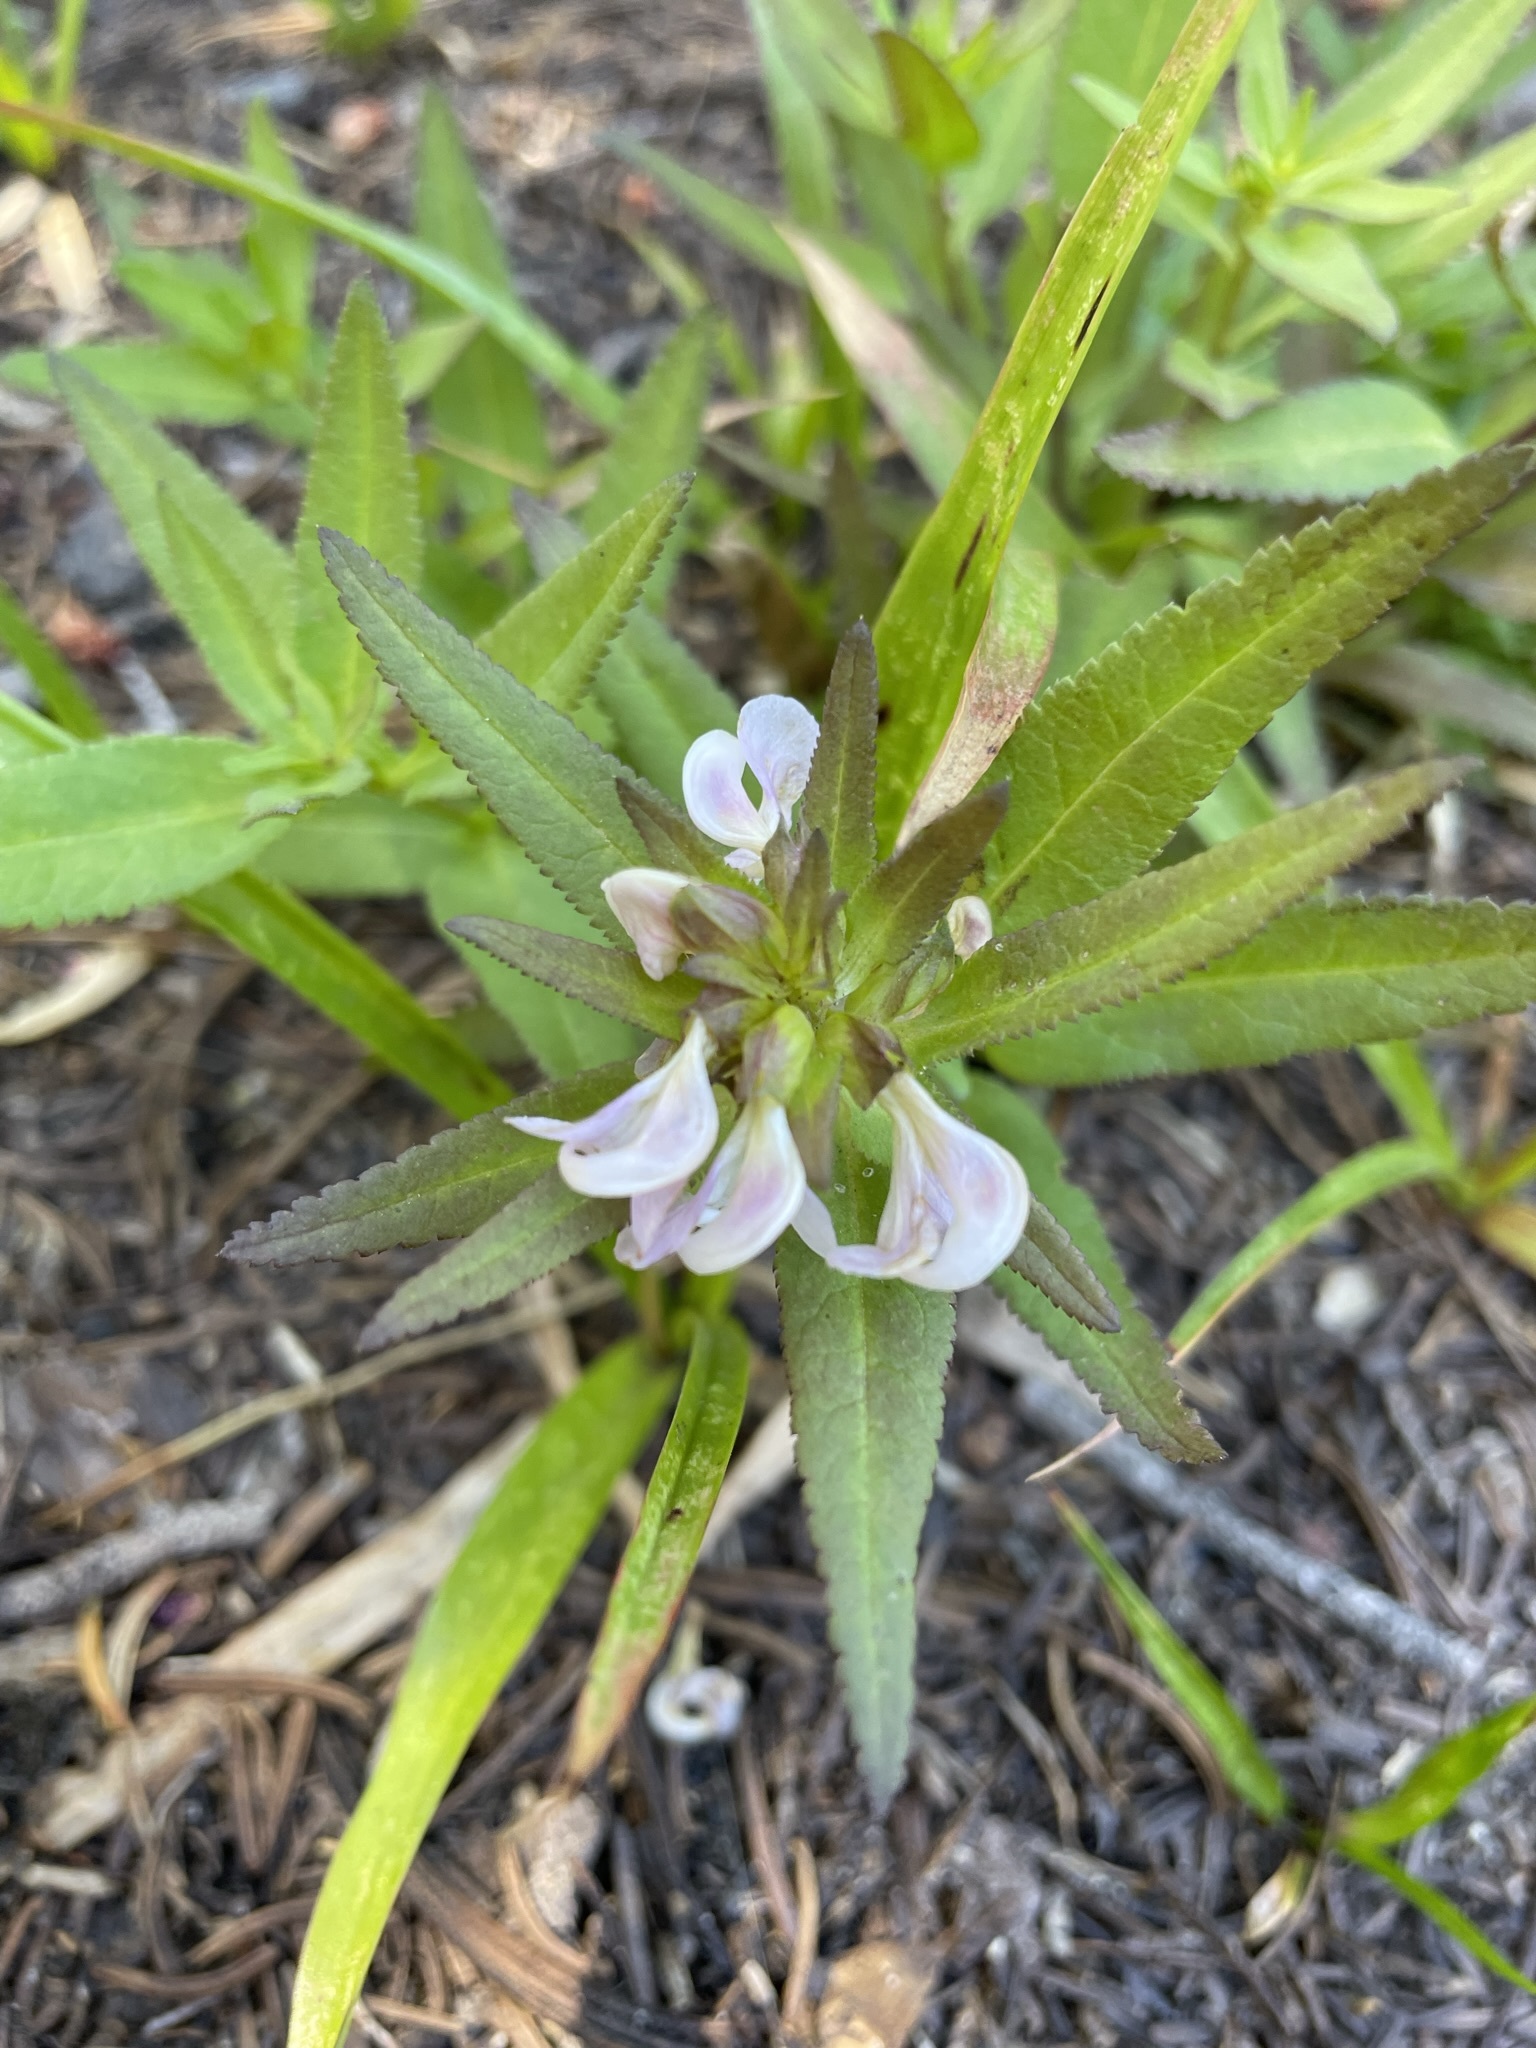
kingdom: Plantae
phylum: Tracheophyta
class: Magnoliopsida
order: Lamiales
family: Orobanchaceae
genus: Pedicularis
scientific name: Pedicularis racemosa
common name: Leafy lousewort
